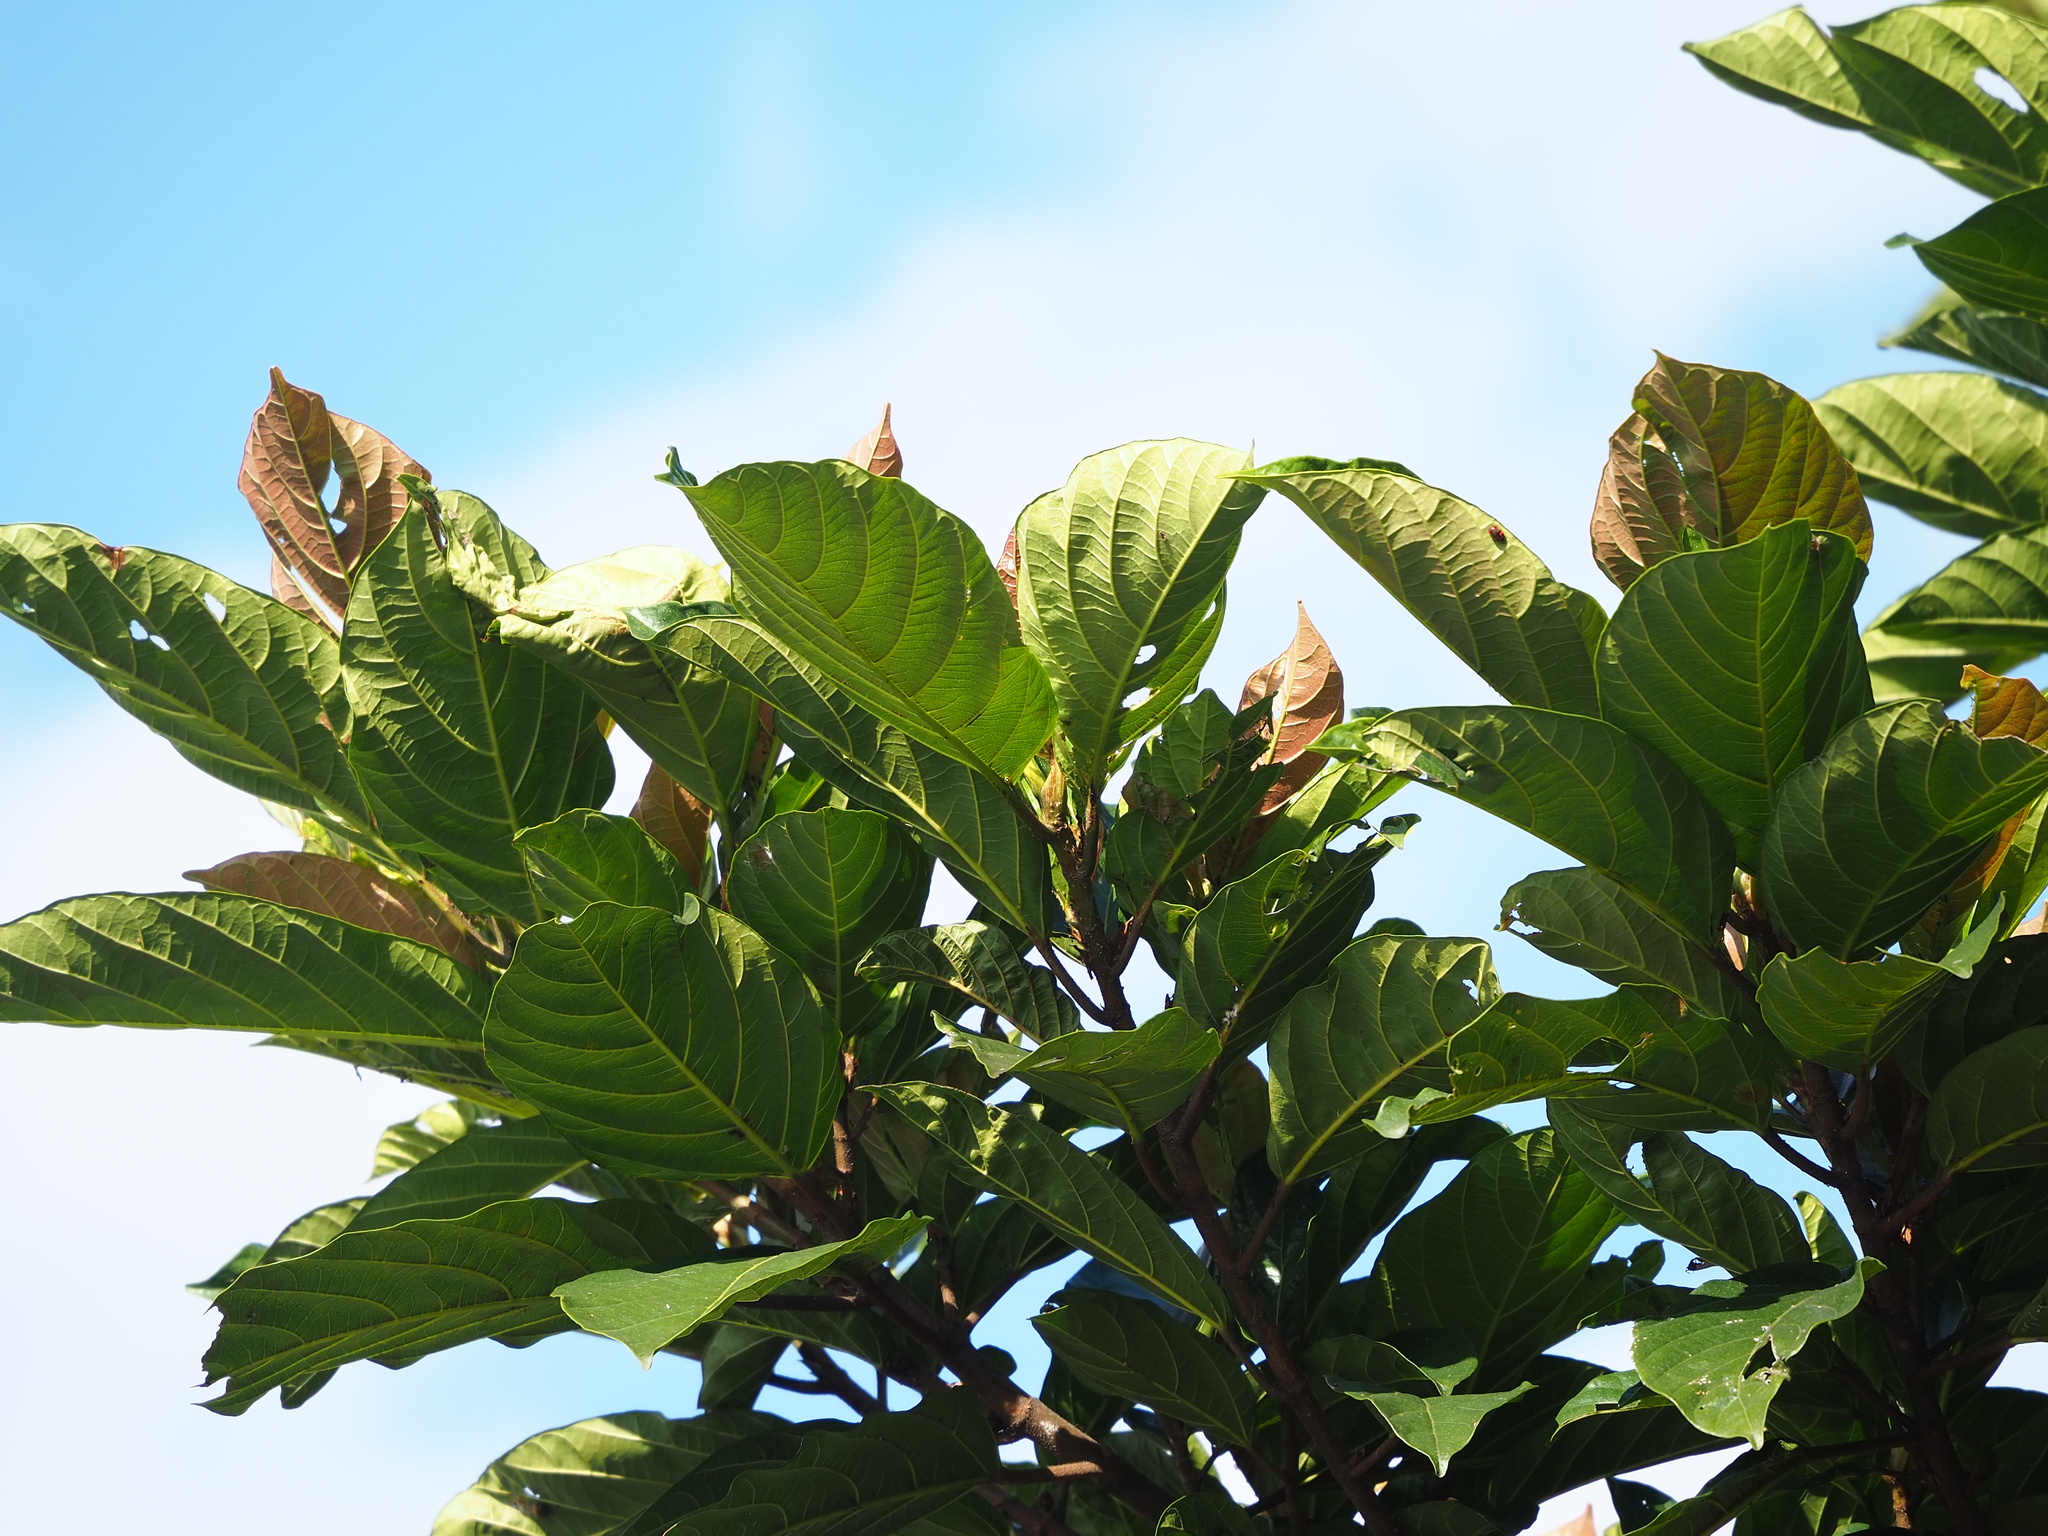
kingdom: Plantae
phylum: Tracheophyta
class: Magnoliopsida
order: Rosales
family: Moraceae
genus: Ficus
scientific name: Ficus benguetensis
